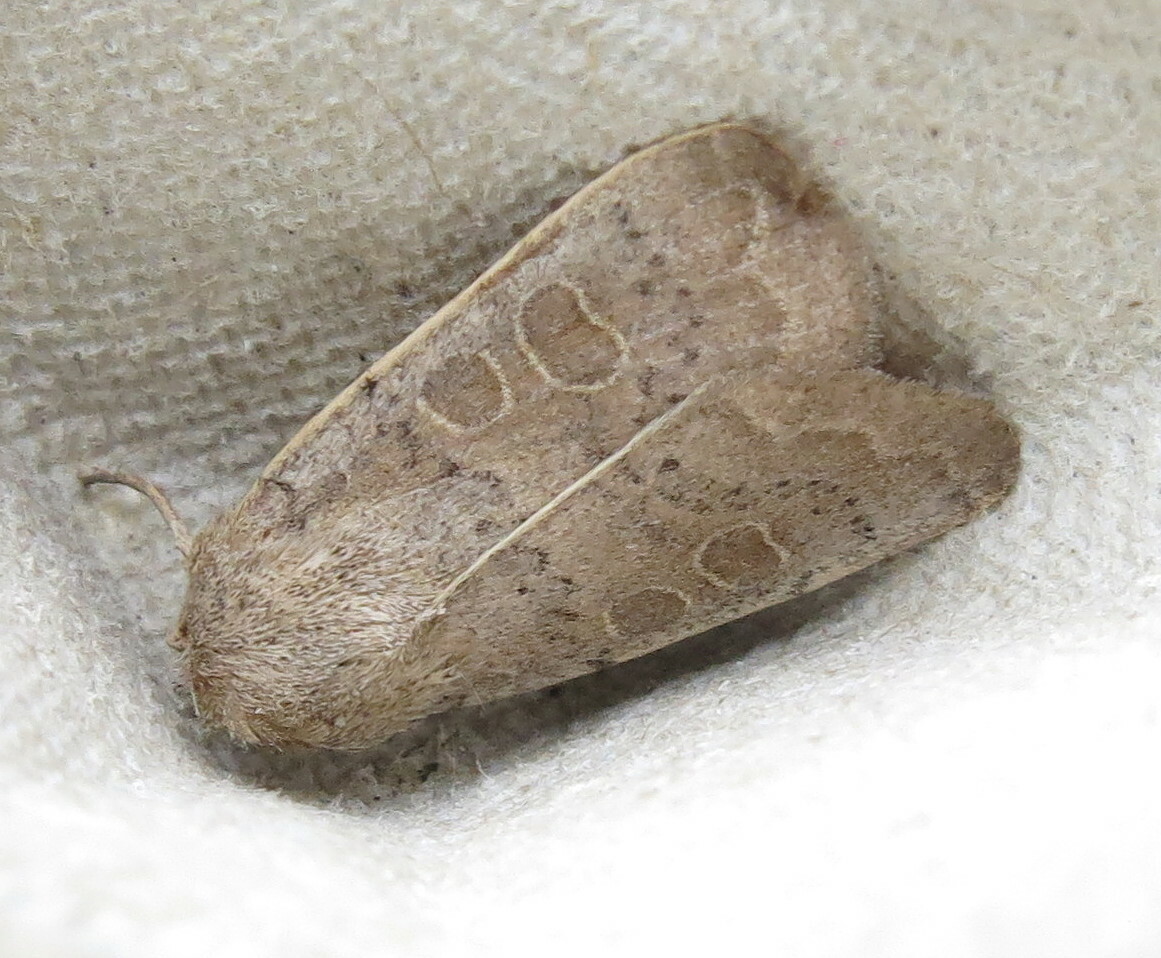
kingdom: Animalia
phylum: Arthropoda
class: Insecta
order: Lepidoptera
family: Noctuidae
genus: Hoplodrina
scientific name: Hoplodrina ambigua
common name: Vine's rustic
